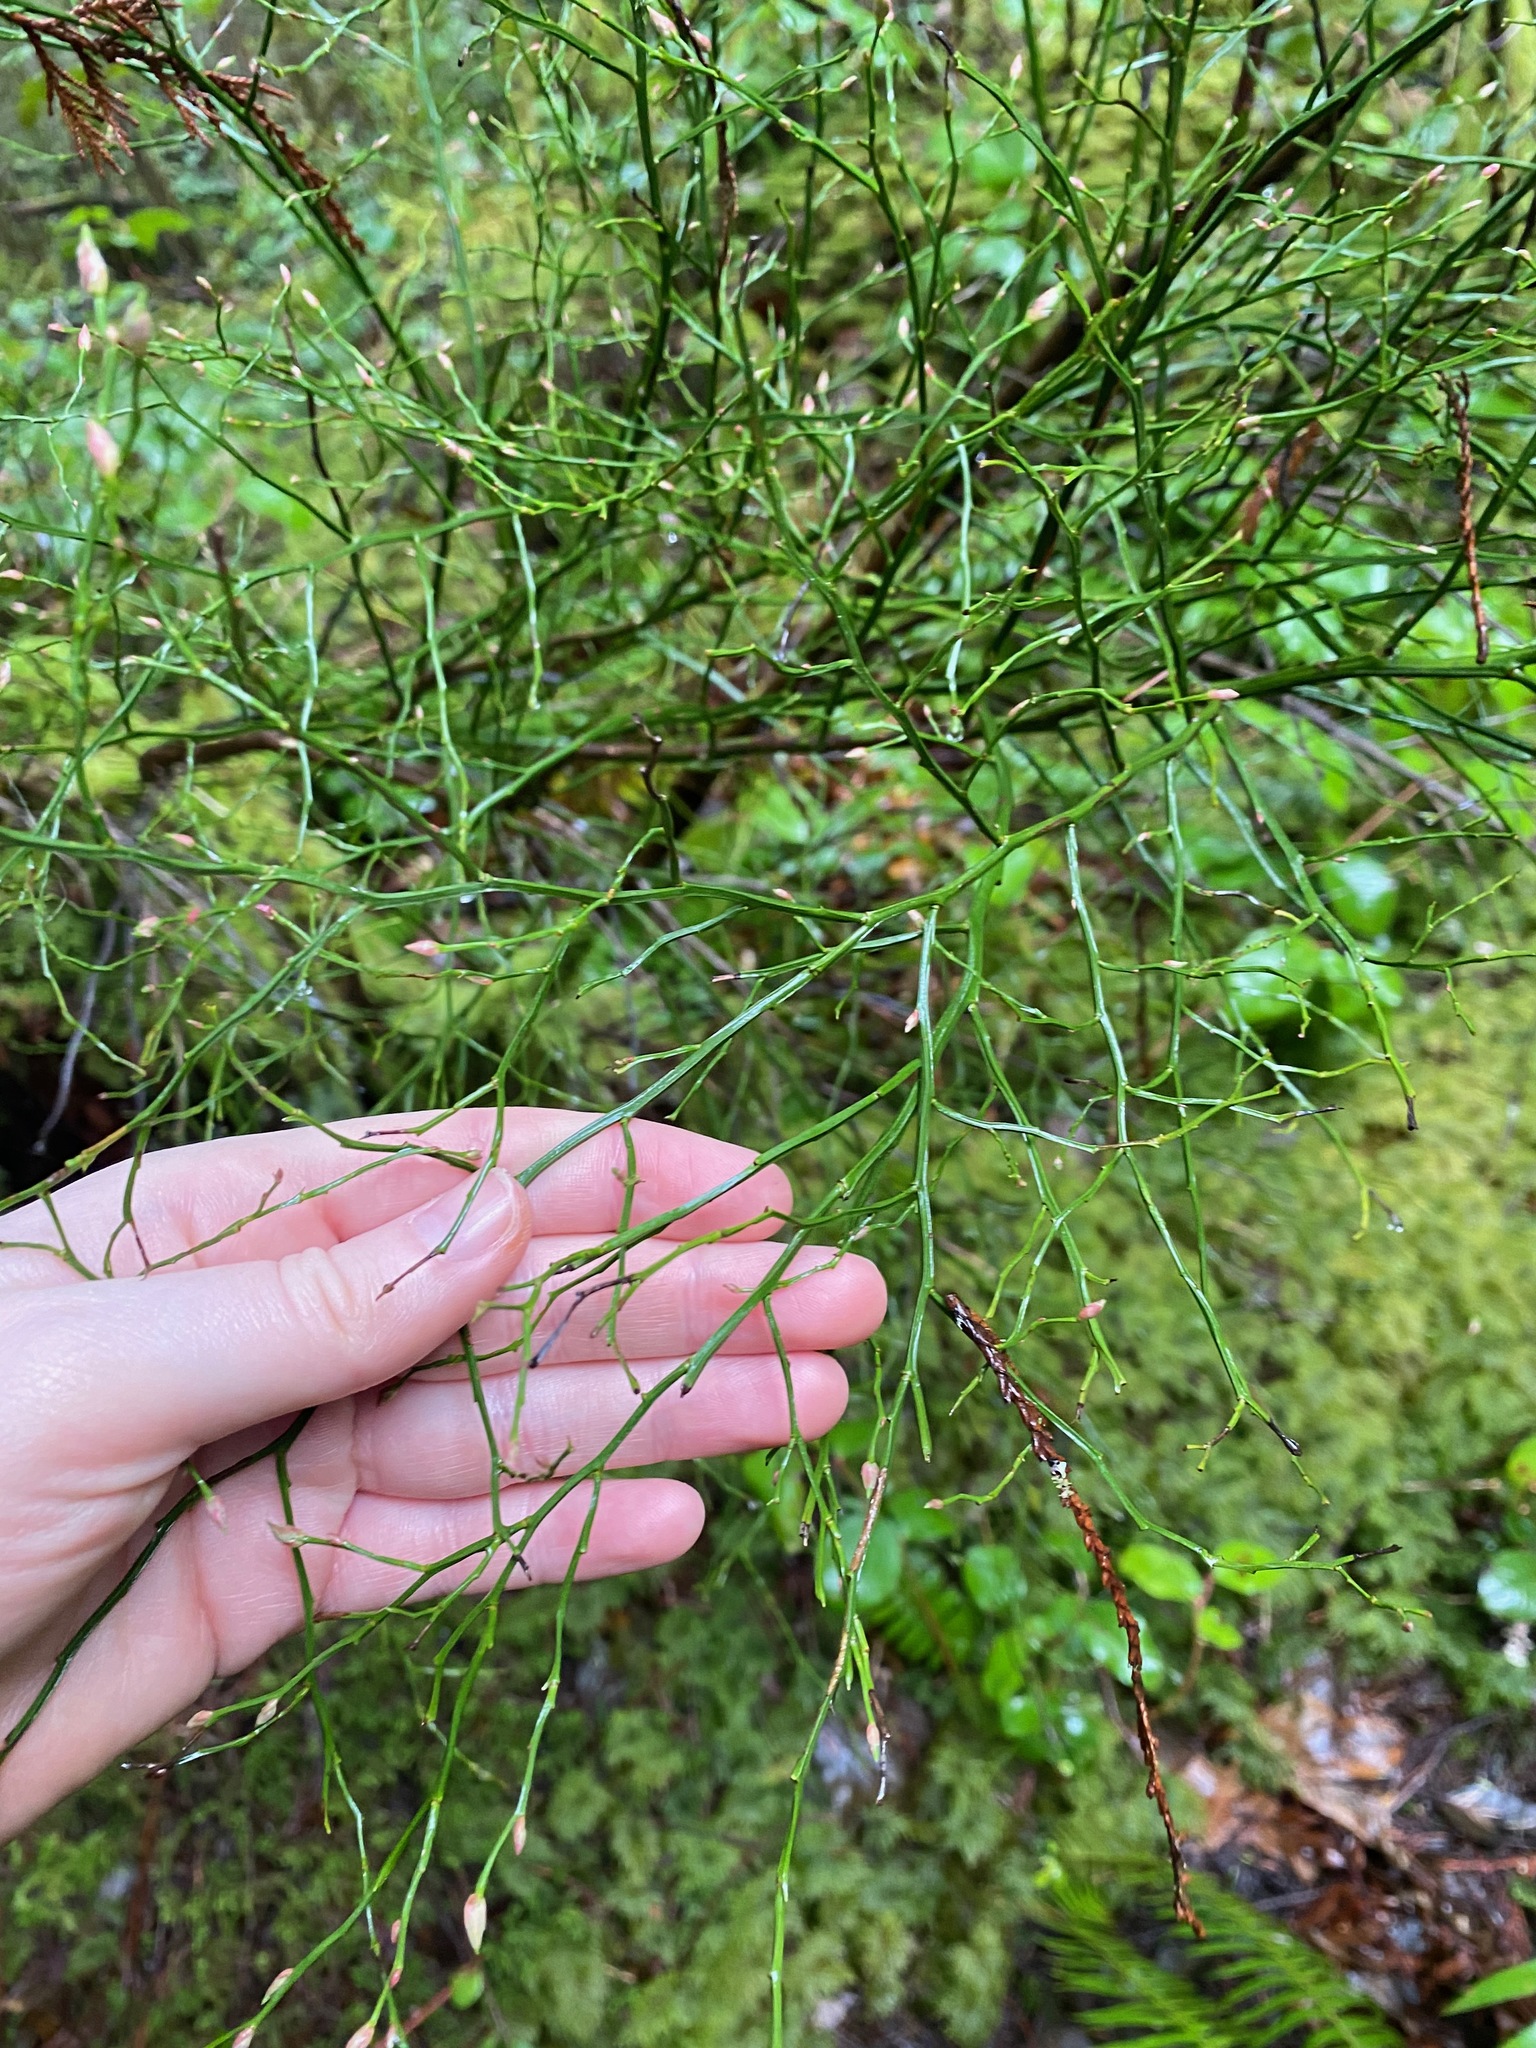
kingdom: Plantae
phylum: Tracheophyta
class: Magnoliopsida
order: Ericales
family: Ericaceae
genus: Vaccinium
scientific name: Vaccinium parvifolium
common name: Red-huckleberry
